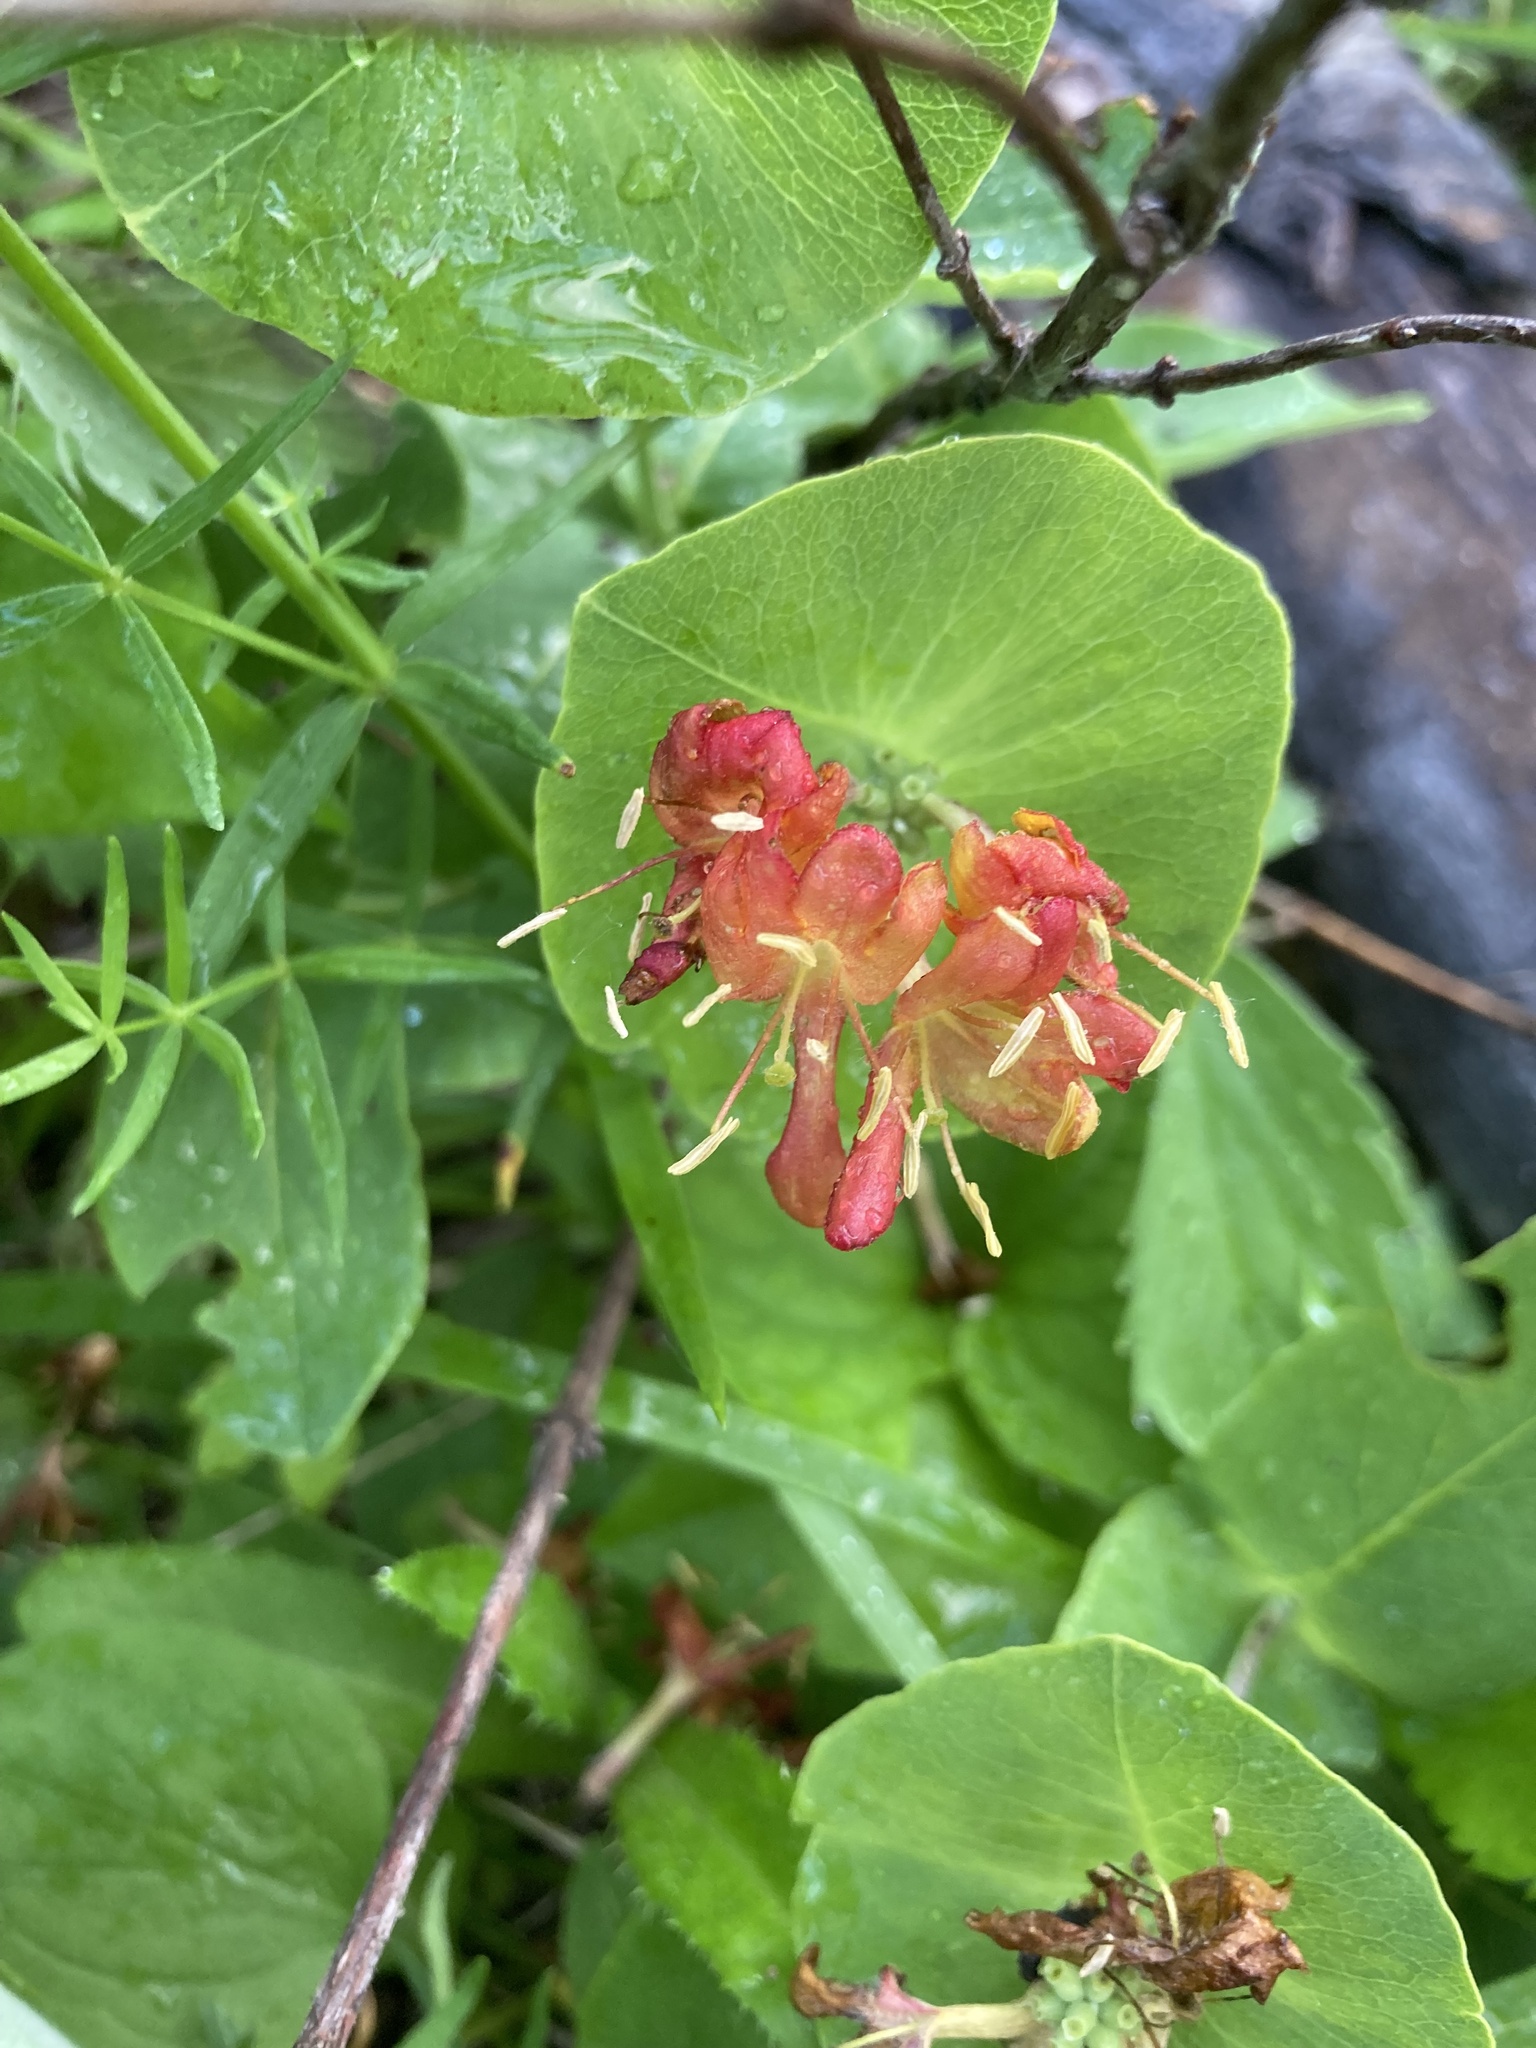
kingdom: Plantae
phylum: Tracheophyta
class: Magnoliopsida
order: Dipsacales
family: Caprifoliaceae
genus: Lonicera
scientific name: Lonicera dioica
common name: Limber honeysuckle
